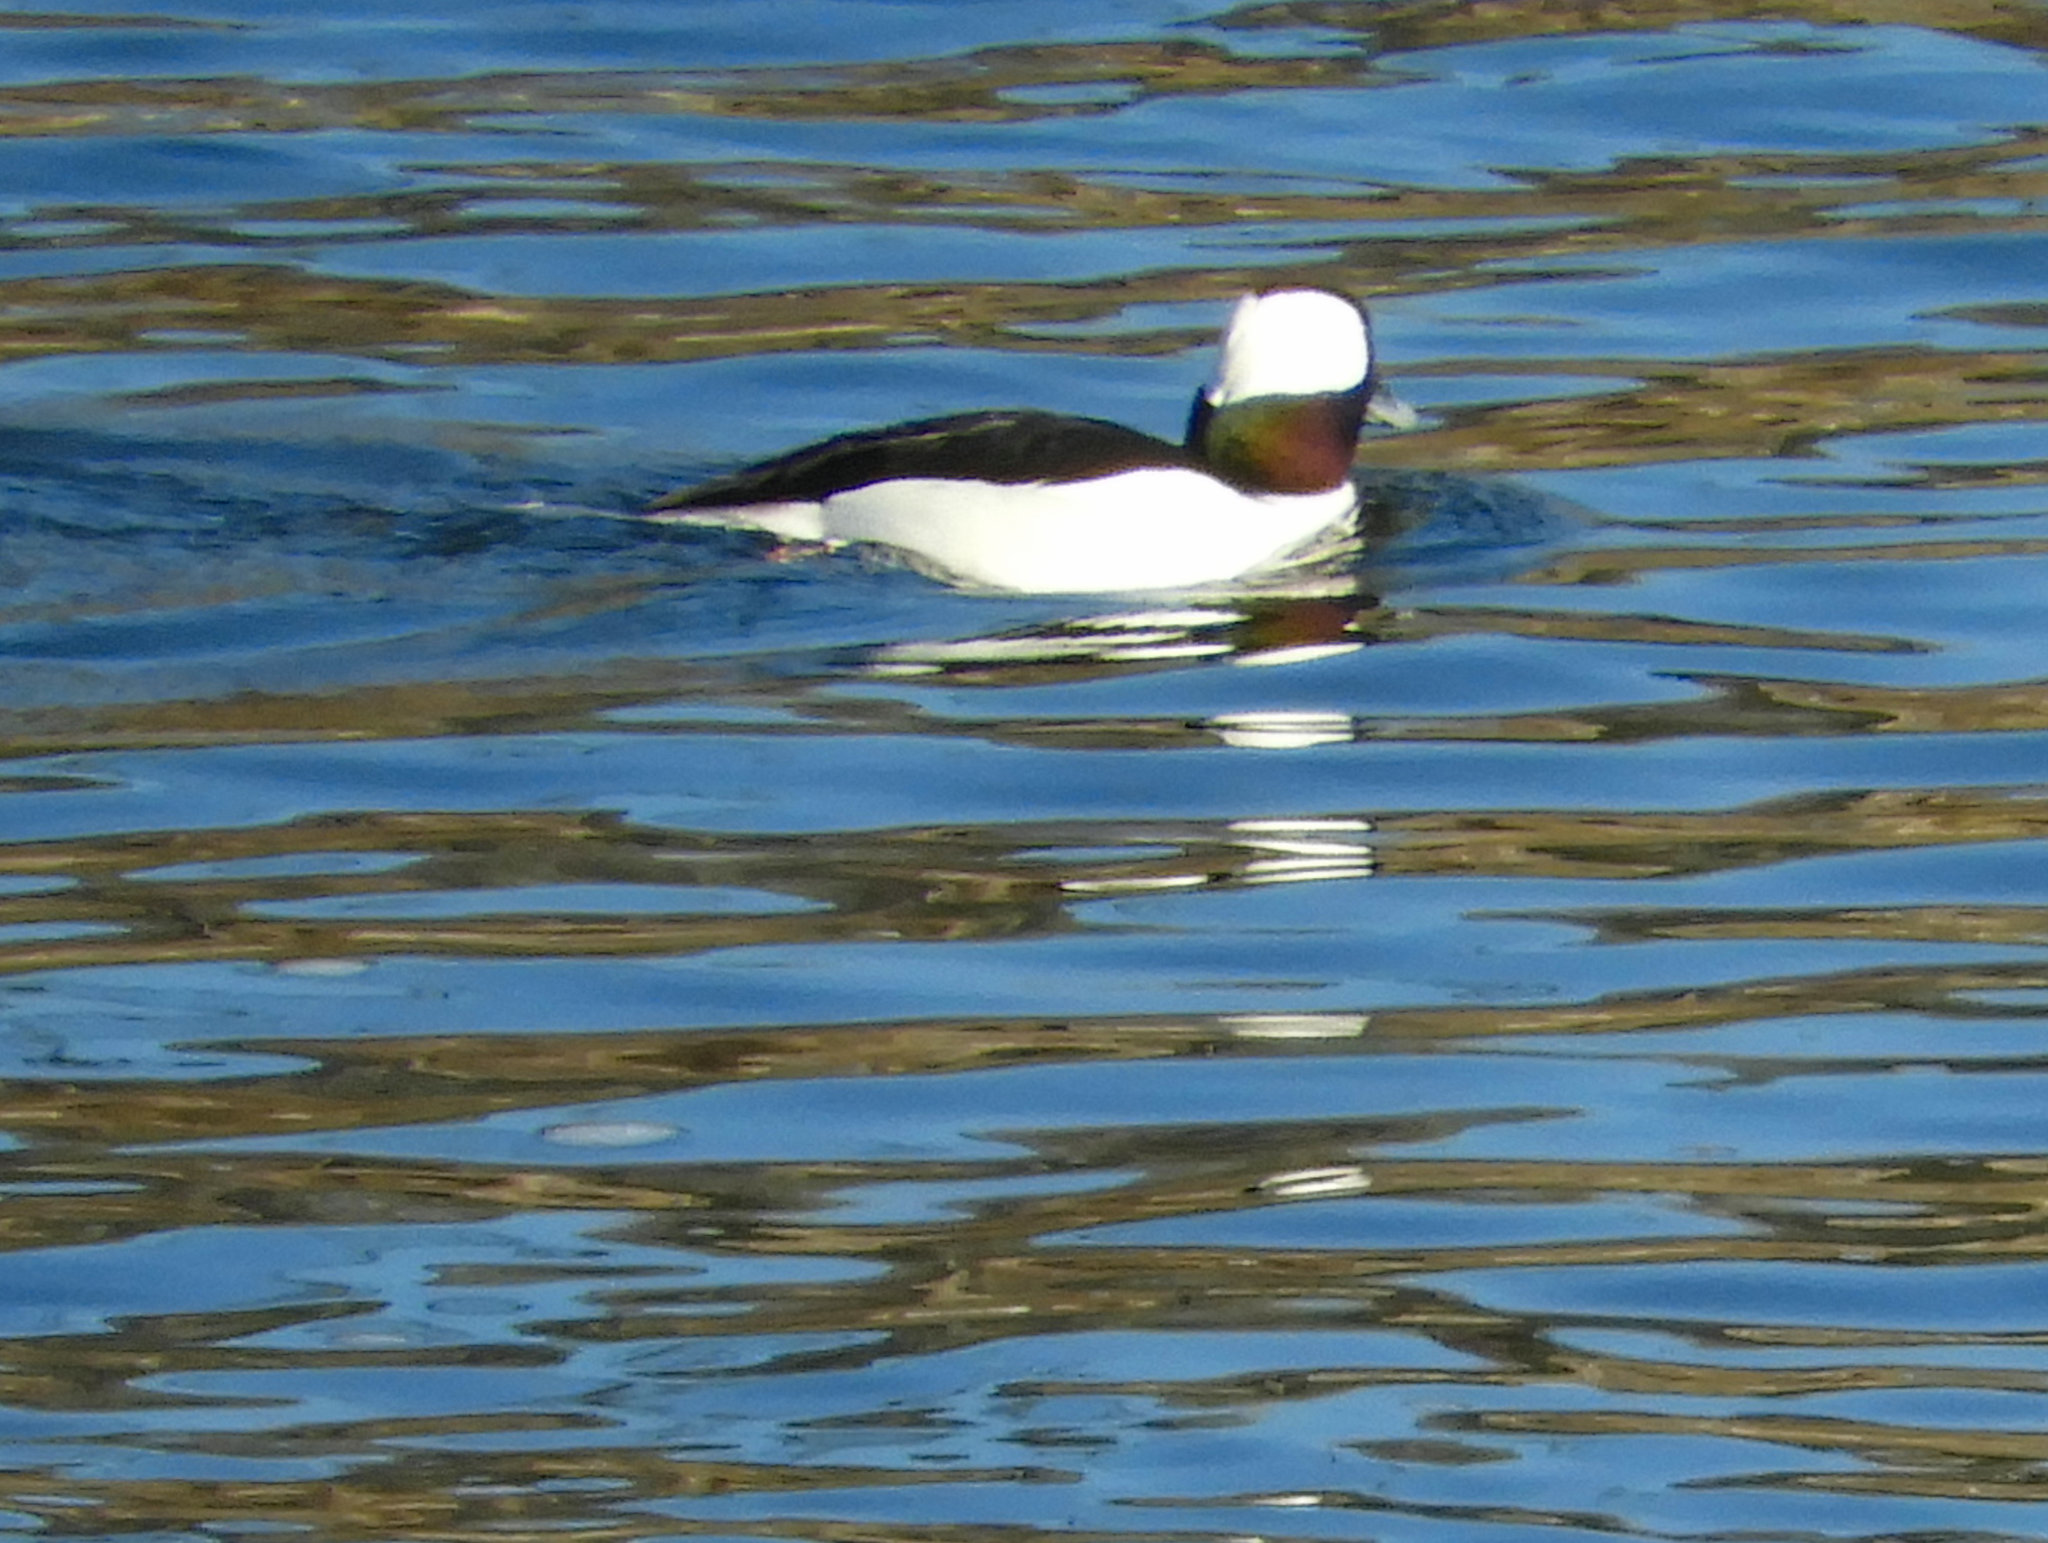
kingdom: Animalia
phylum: Chordata
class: Aves
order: Anseriformes
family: Anatidae
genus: Bucephala
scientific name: Bucephala albeola
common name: Bufflehead
